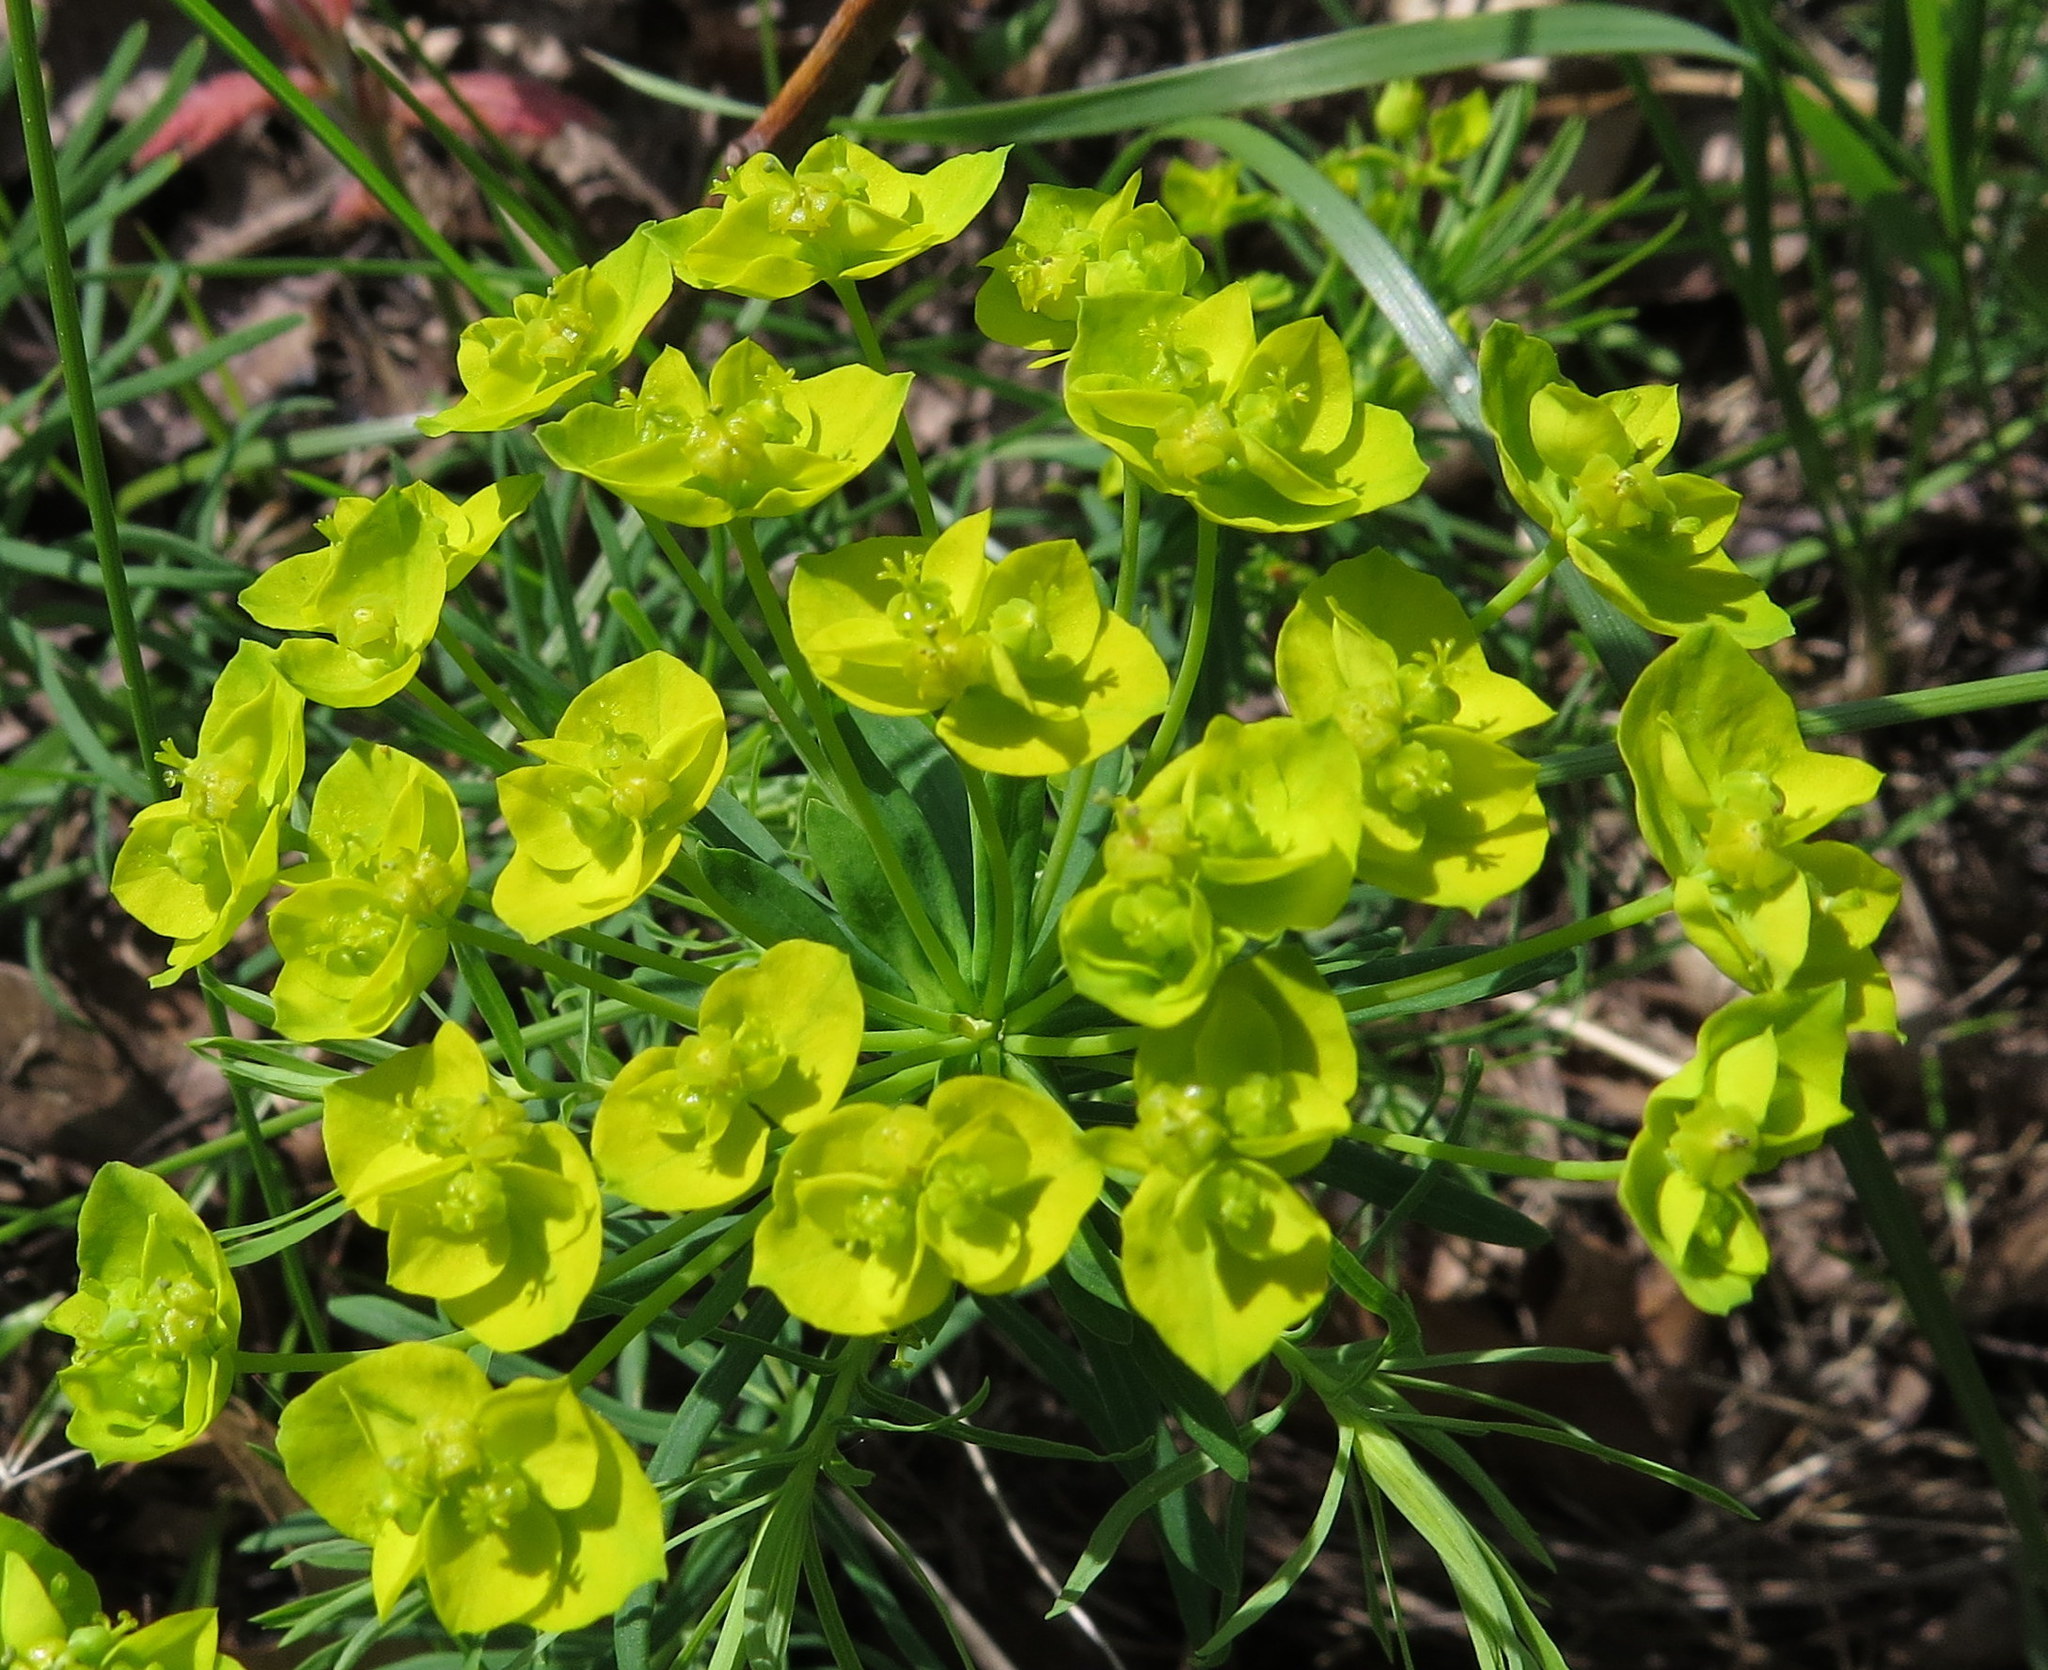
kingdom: Plantae
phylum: Tracheophyta
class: Magnoliopsida
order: Malpighiales
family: Euphorbiaceae
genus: Euphorbia
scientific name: Euphorbia cyparissias
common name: Cypress spurge
